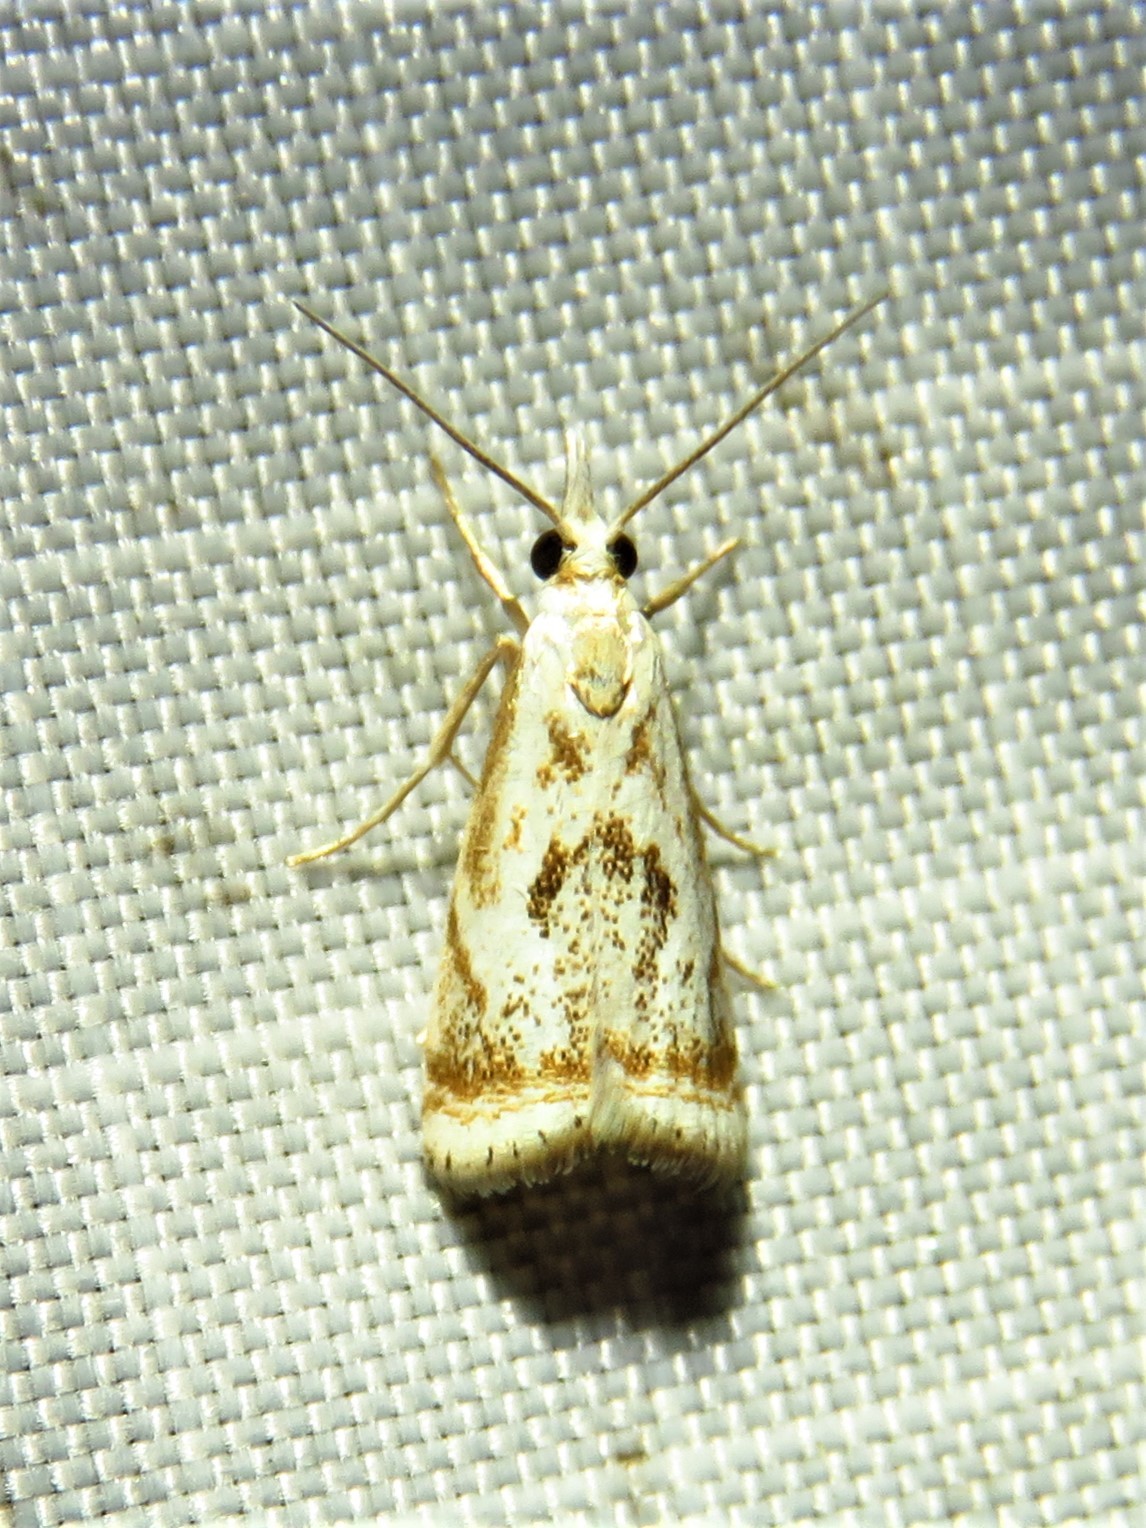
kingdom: Animalia
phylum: Arthropoda
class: Insecta
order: Lepidoptera
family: Crambidae
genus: Microcrambus
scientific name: Microcrambus elegans
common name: Elegant grass-veneer
